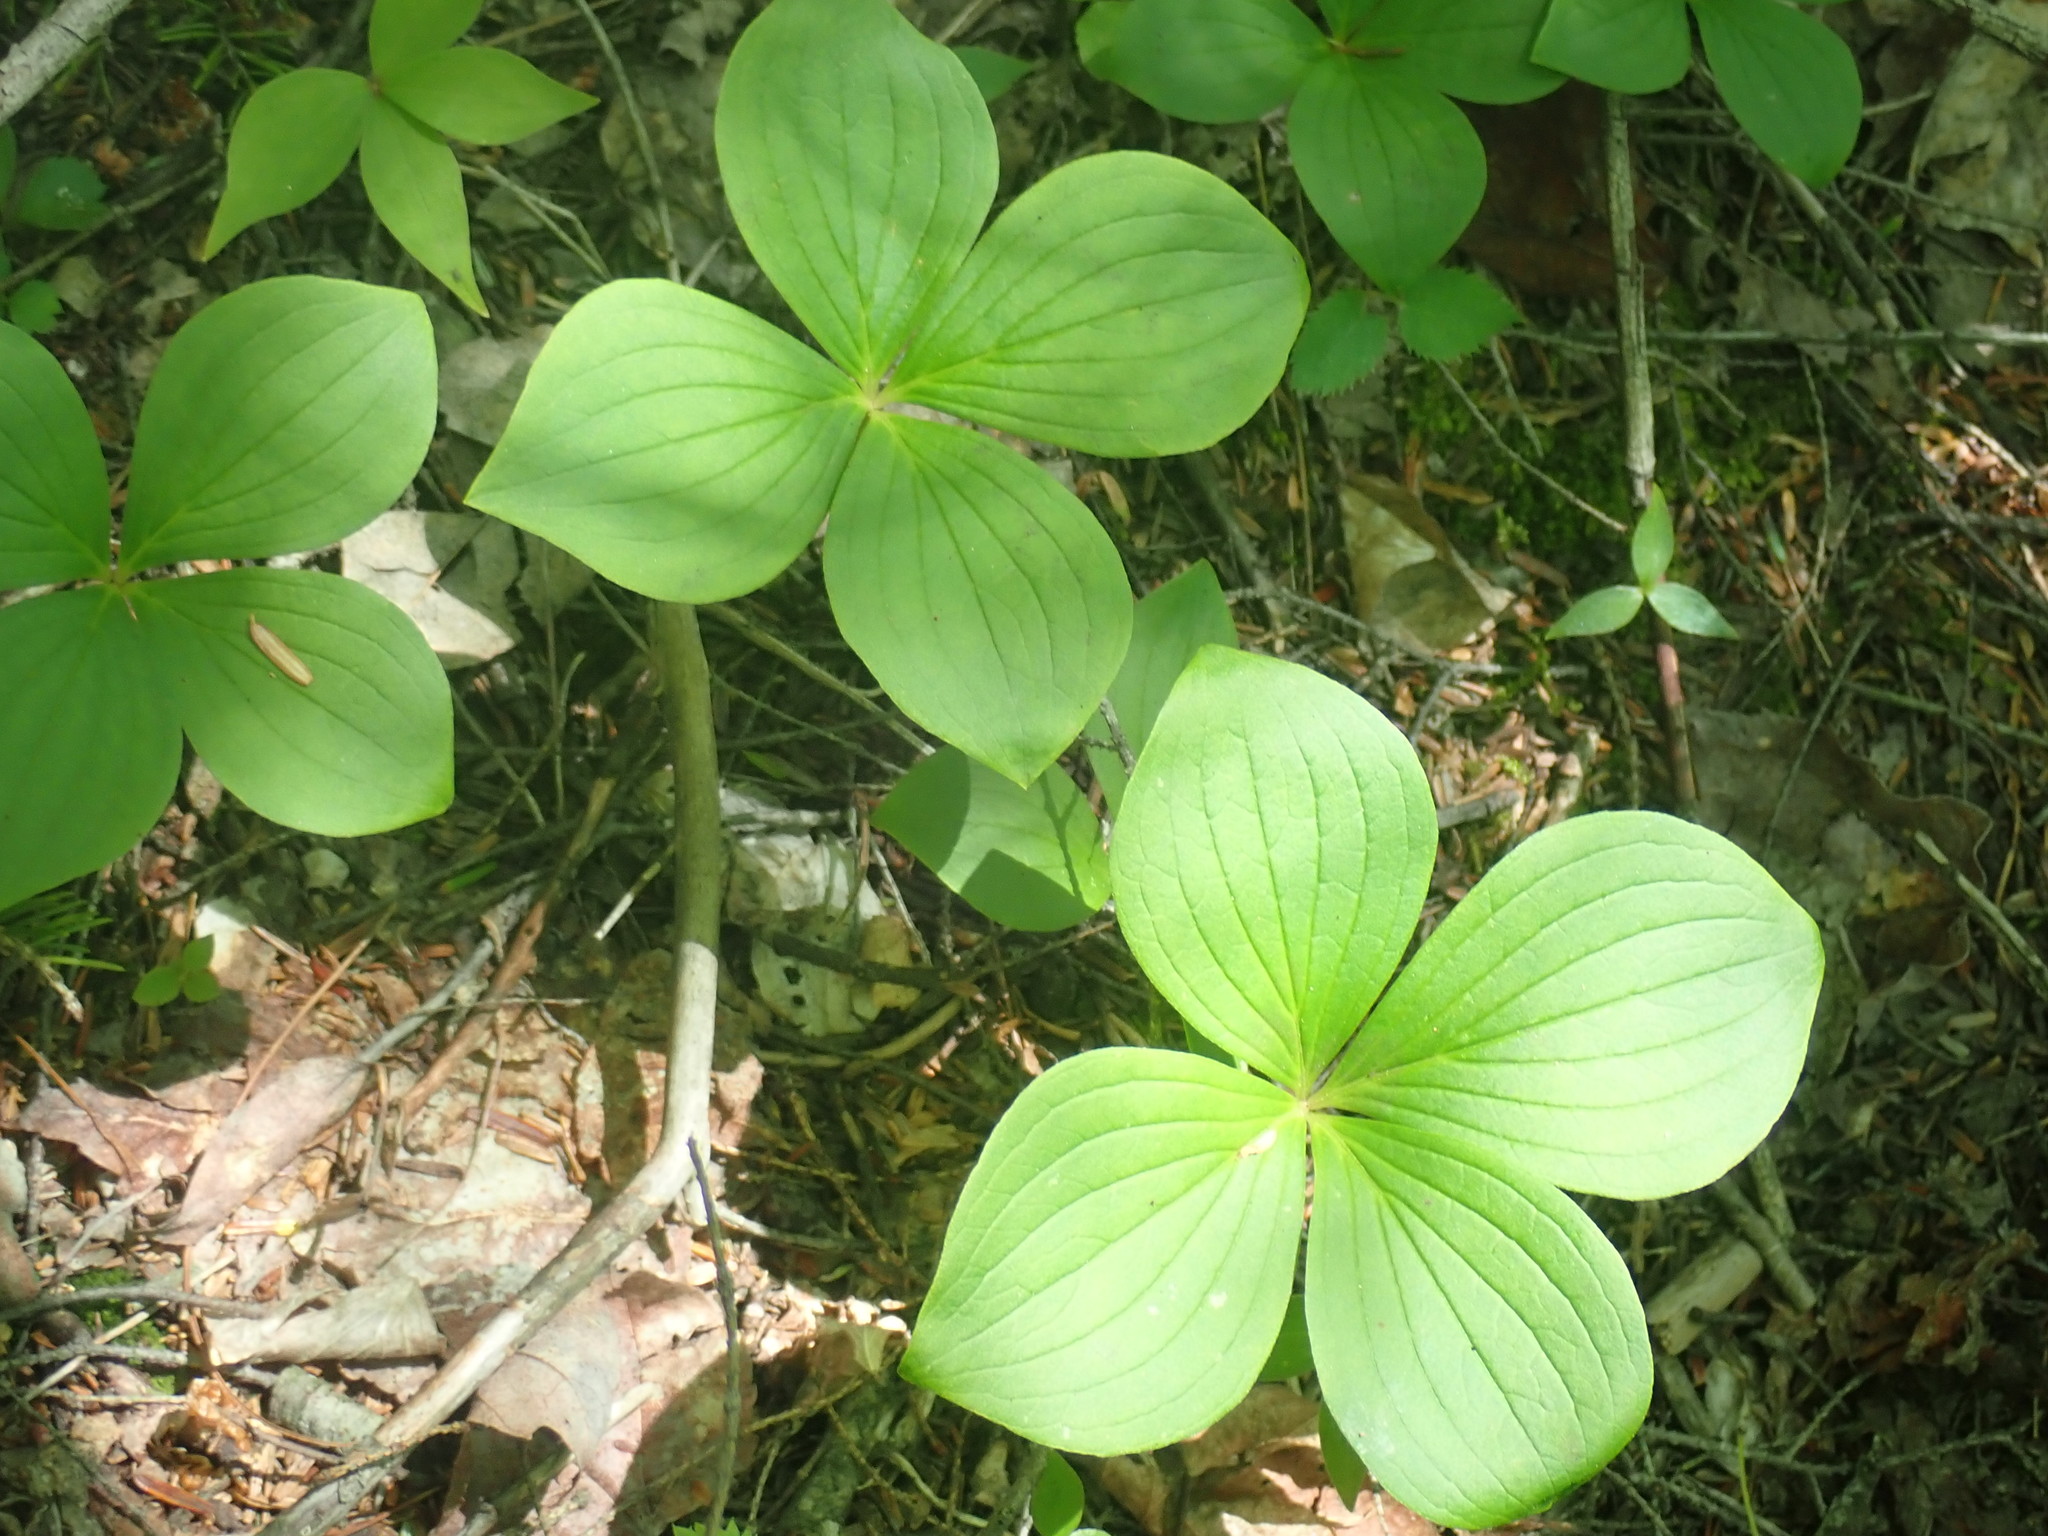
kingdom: Plantae
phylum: Tracheophyta
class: Magnoliopsida
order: Cornales
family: Cornaceae
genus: Cornus
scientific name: Cornus canadensis
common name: Creeping dogwood
